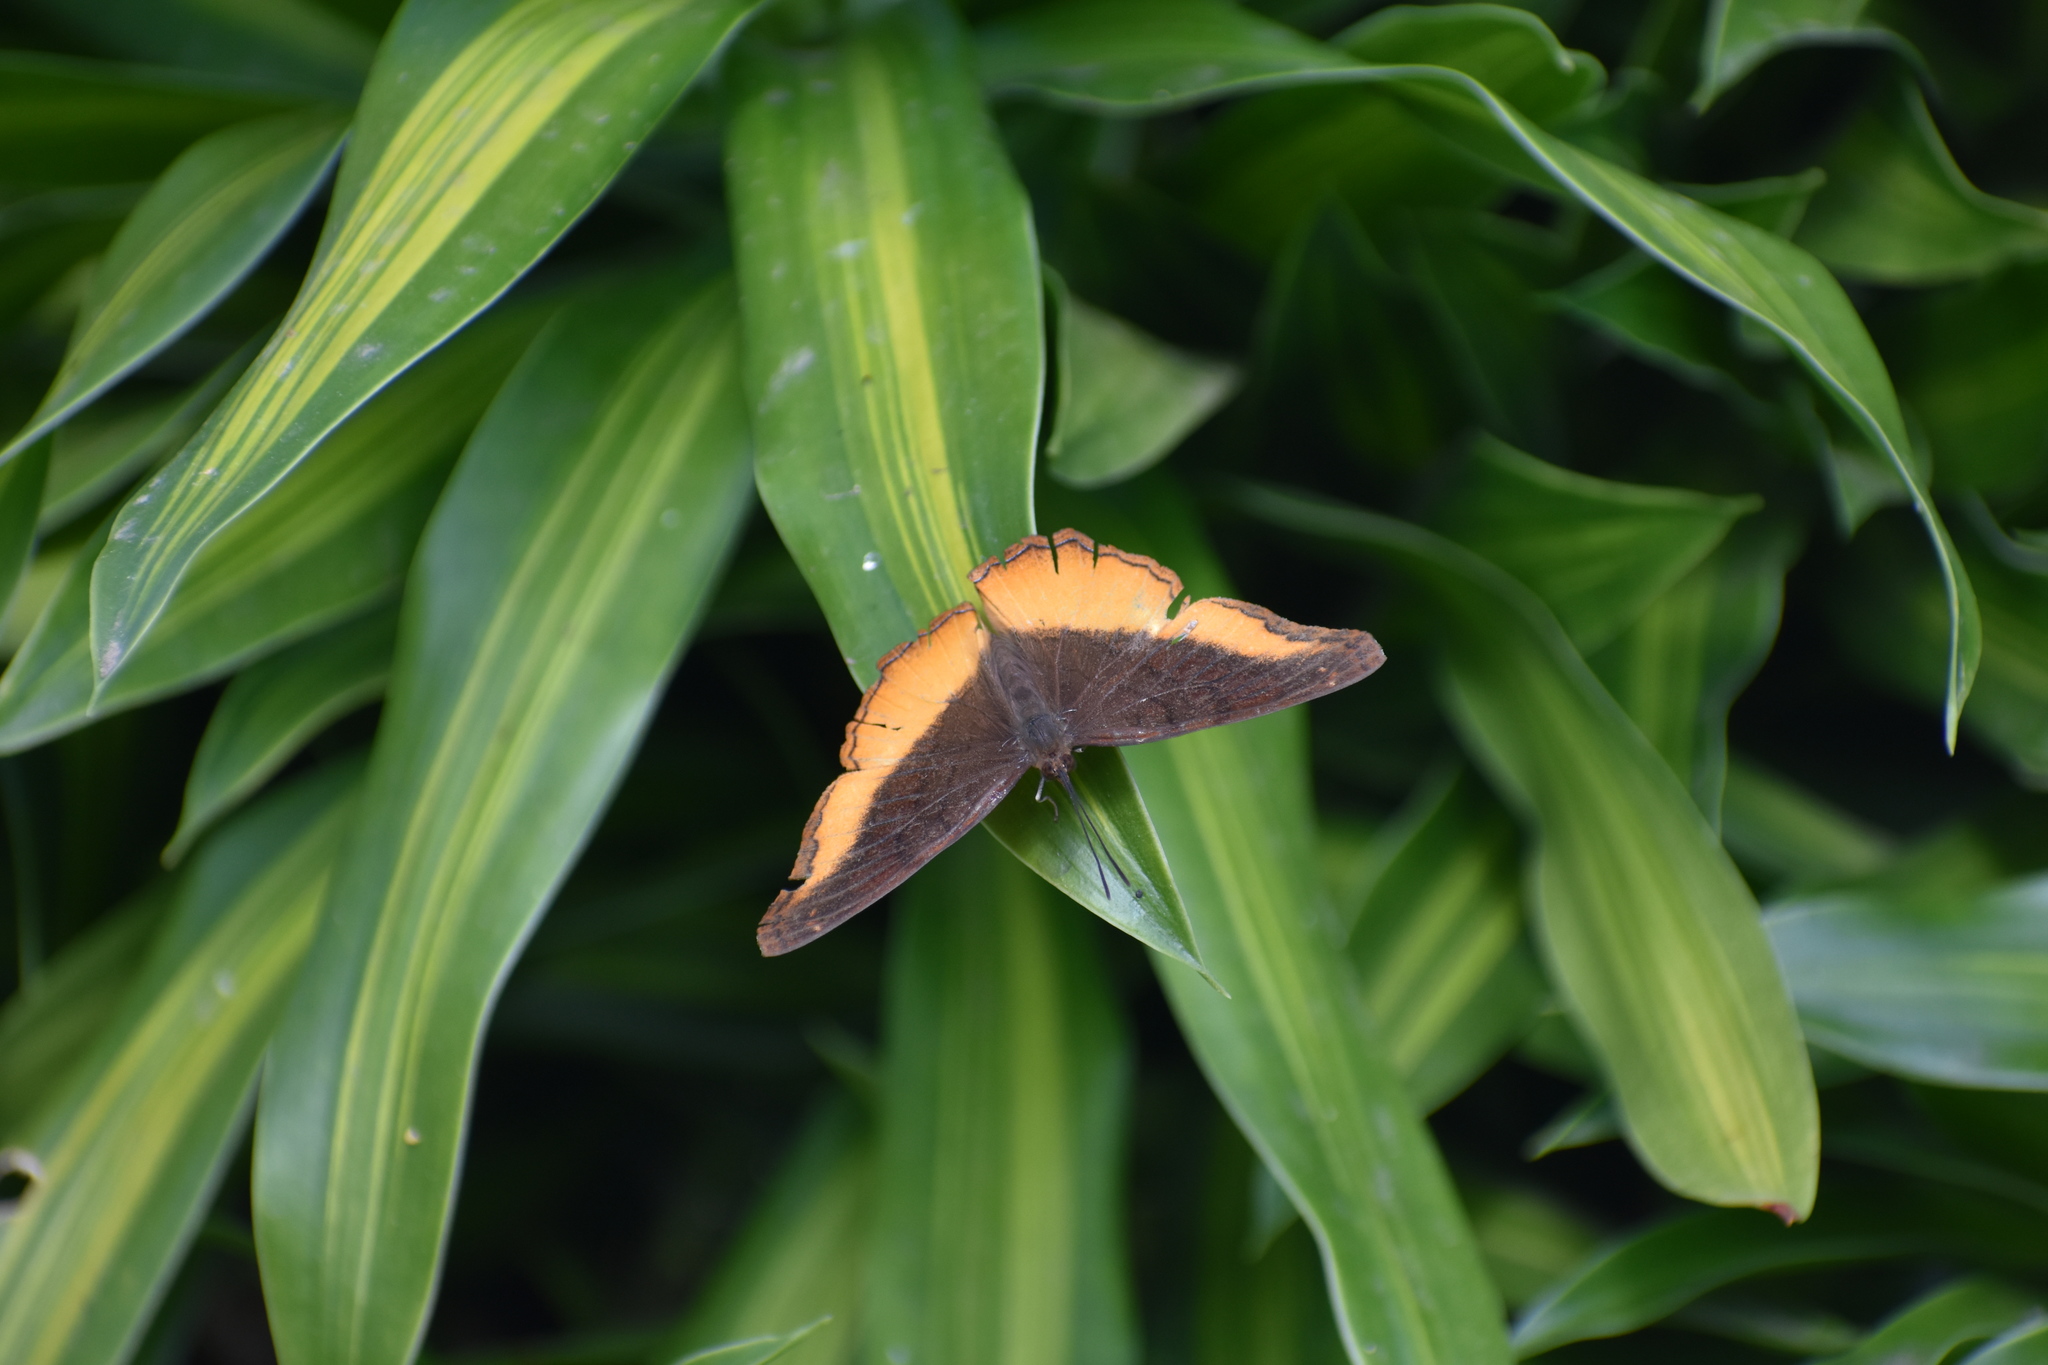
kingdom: Animalia
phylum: Arthropoda
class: Insecta
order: Lepidoptera
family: Nymphalidae
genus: Eurytela
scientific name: Eurytela dryope
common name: Golden piper
